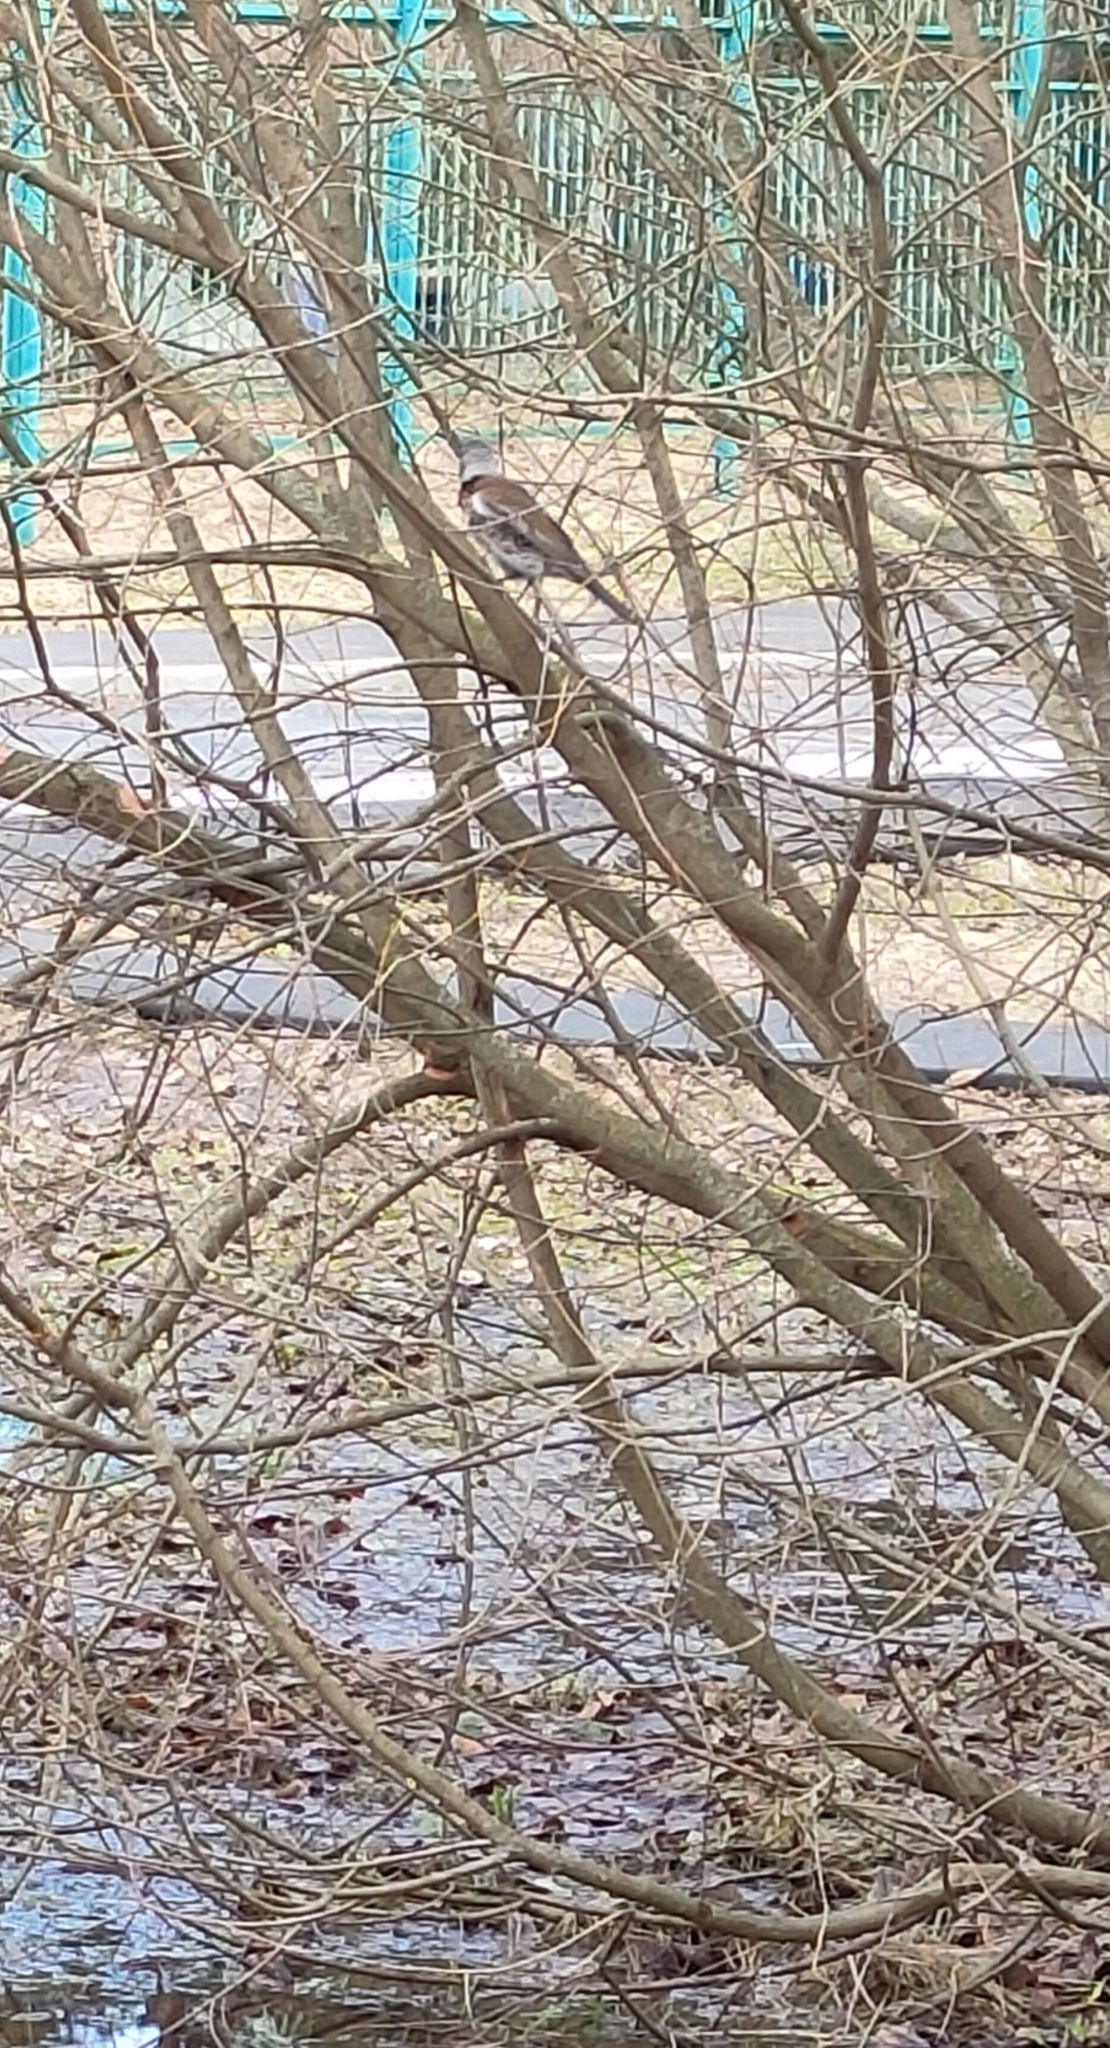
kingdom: Animalia
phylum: Chordata
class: Aves
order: Passeriformes
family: Turdidae
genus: Turdus
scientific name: Turdus pilaris
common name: Fieldfare
